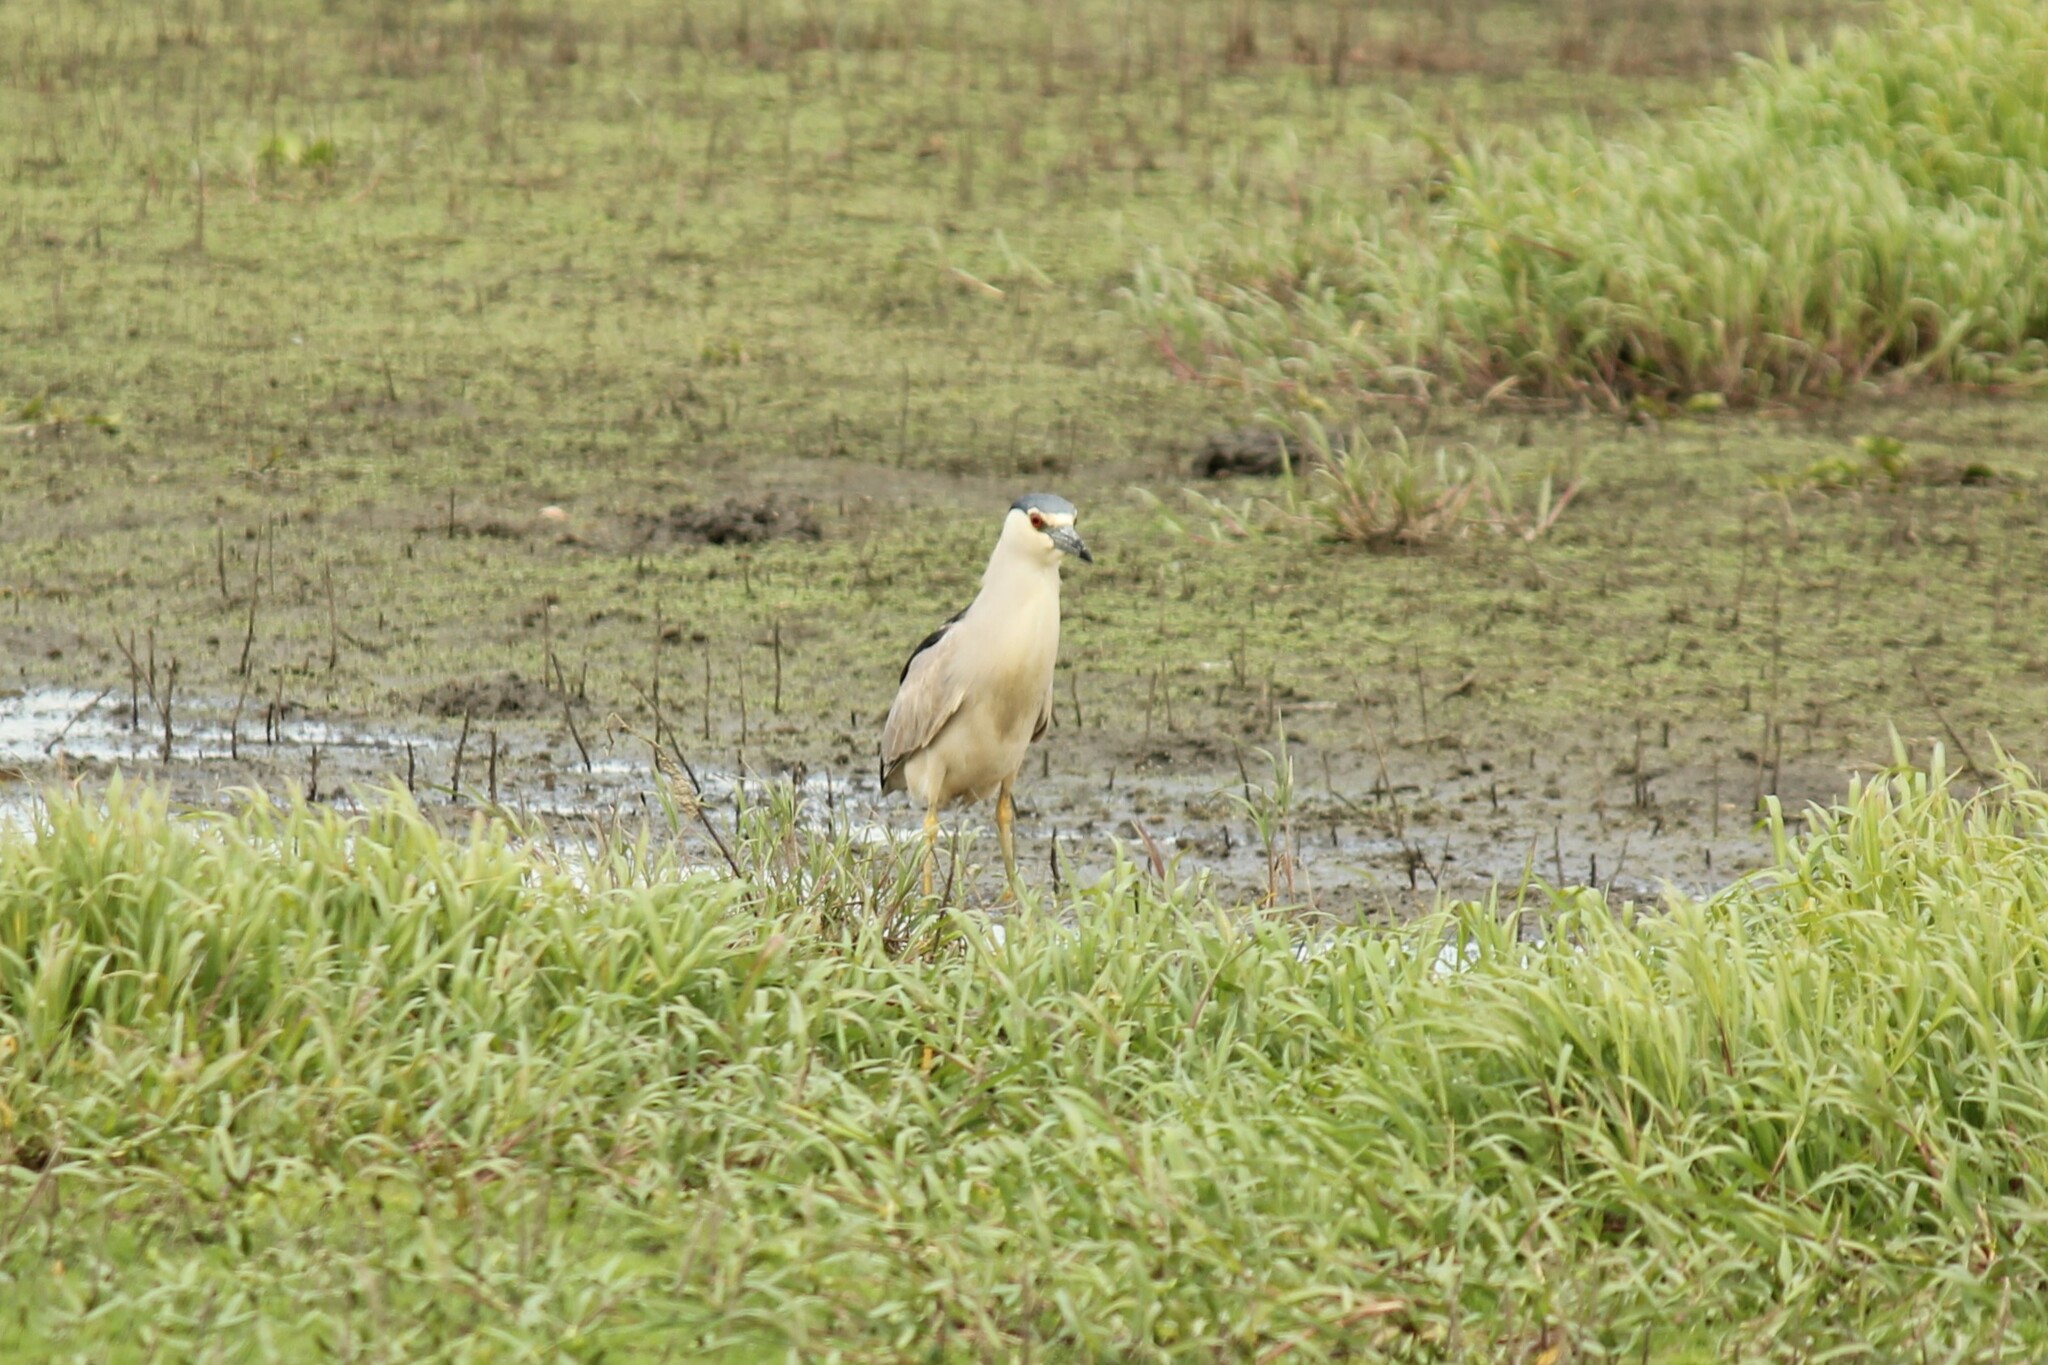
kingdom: Animalia
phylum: Chordata
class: Aves
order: Pelecaniformes
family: Ardeidae
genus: Nycticorax
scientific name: Nycticorax nycticorax
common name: Black-crowned night heron
